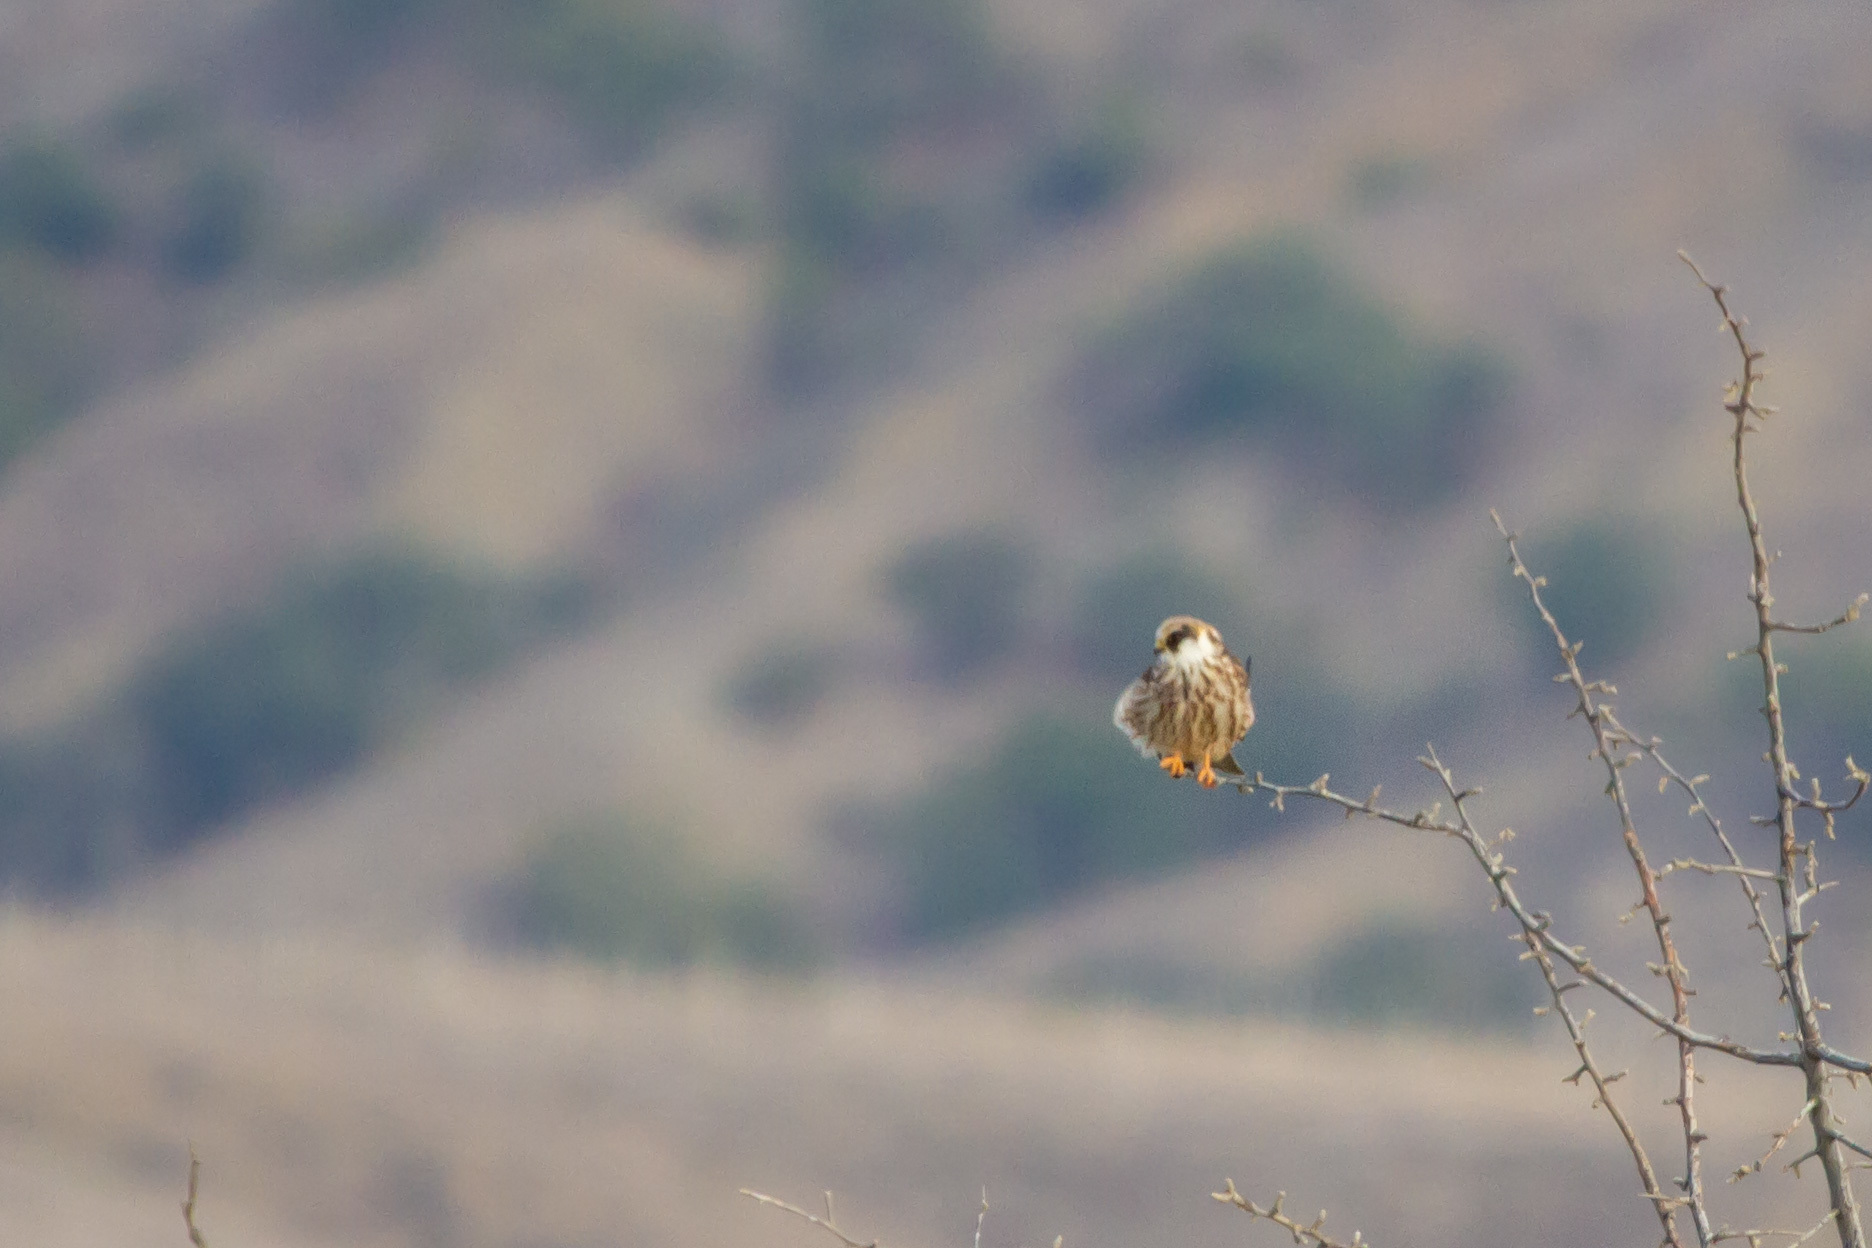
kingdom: Animalia
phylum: Chordata
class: Aves
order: Falconiformes
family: Falconidae
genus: Falco
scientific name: Falco vespertinus
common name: Red-footed falcon
